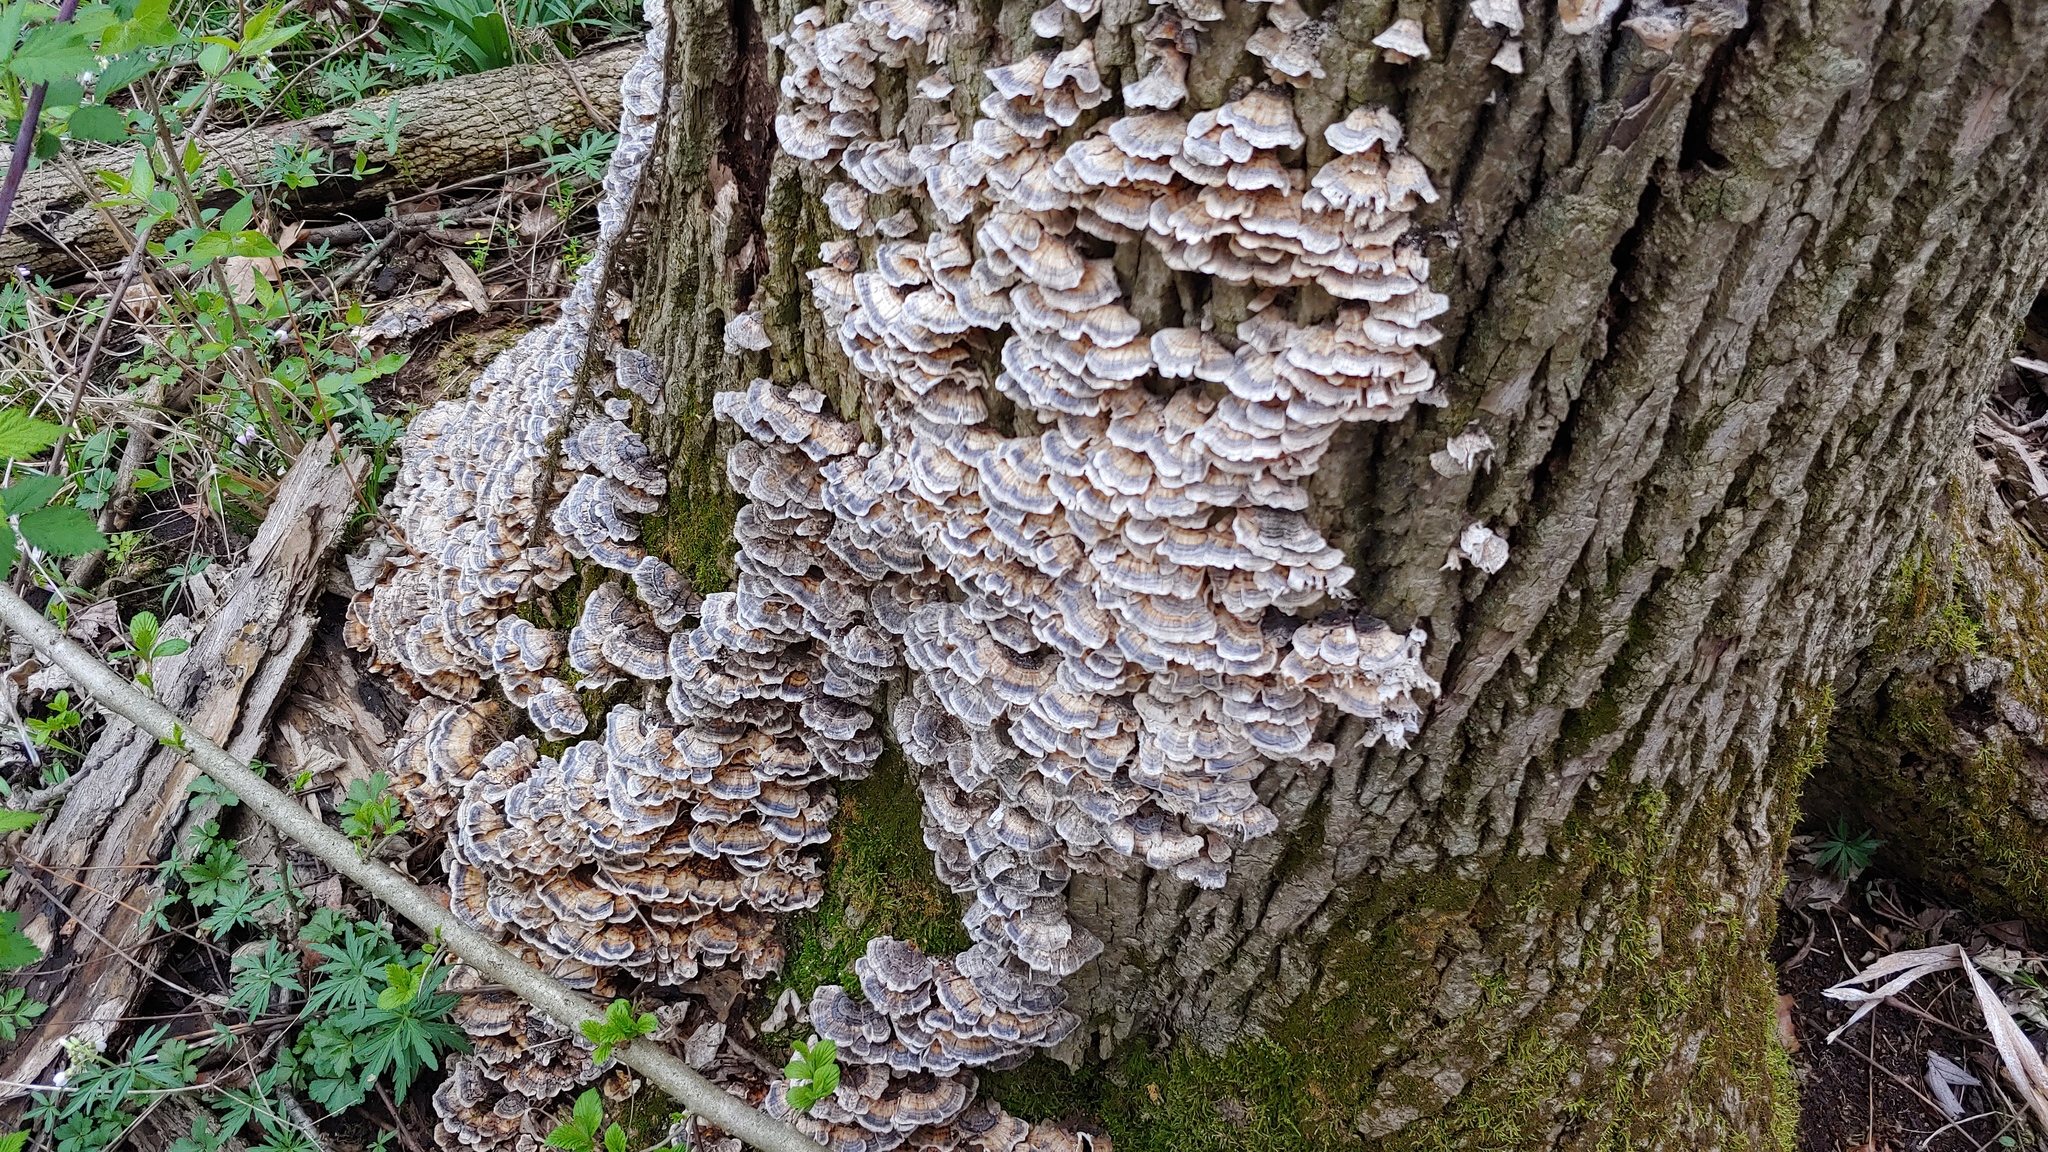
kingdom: Fungi
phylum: Basidiomycota
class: Agaricomycetes
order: Polyporales
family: Polyporaceae
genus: Trametes
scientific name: Trametes versicolor
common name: Turkeytail
